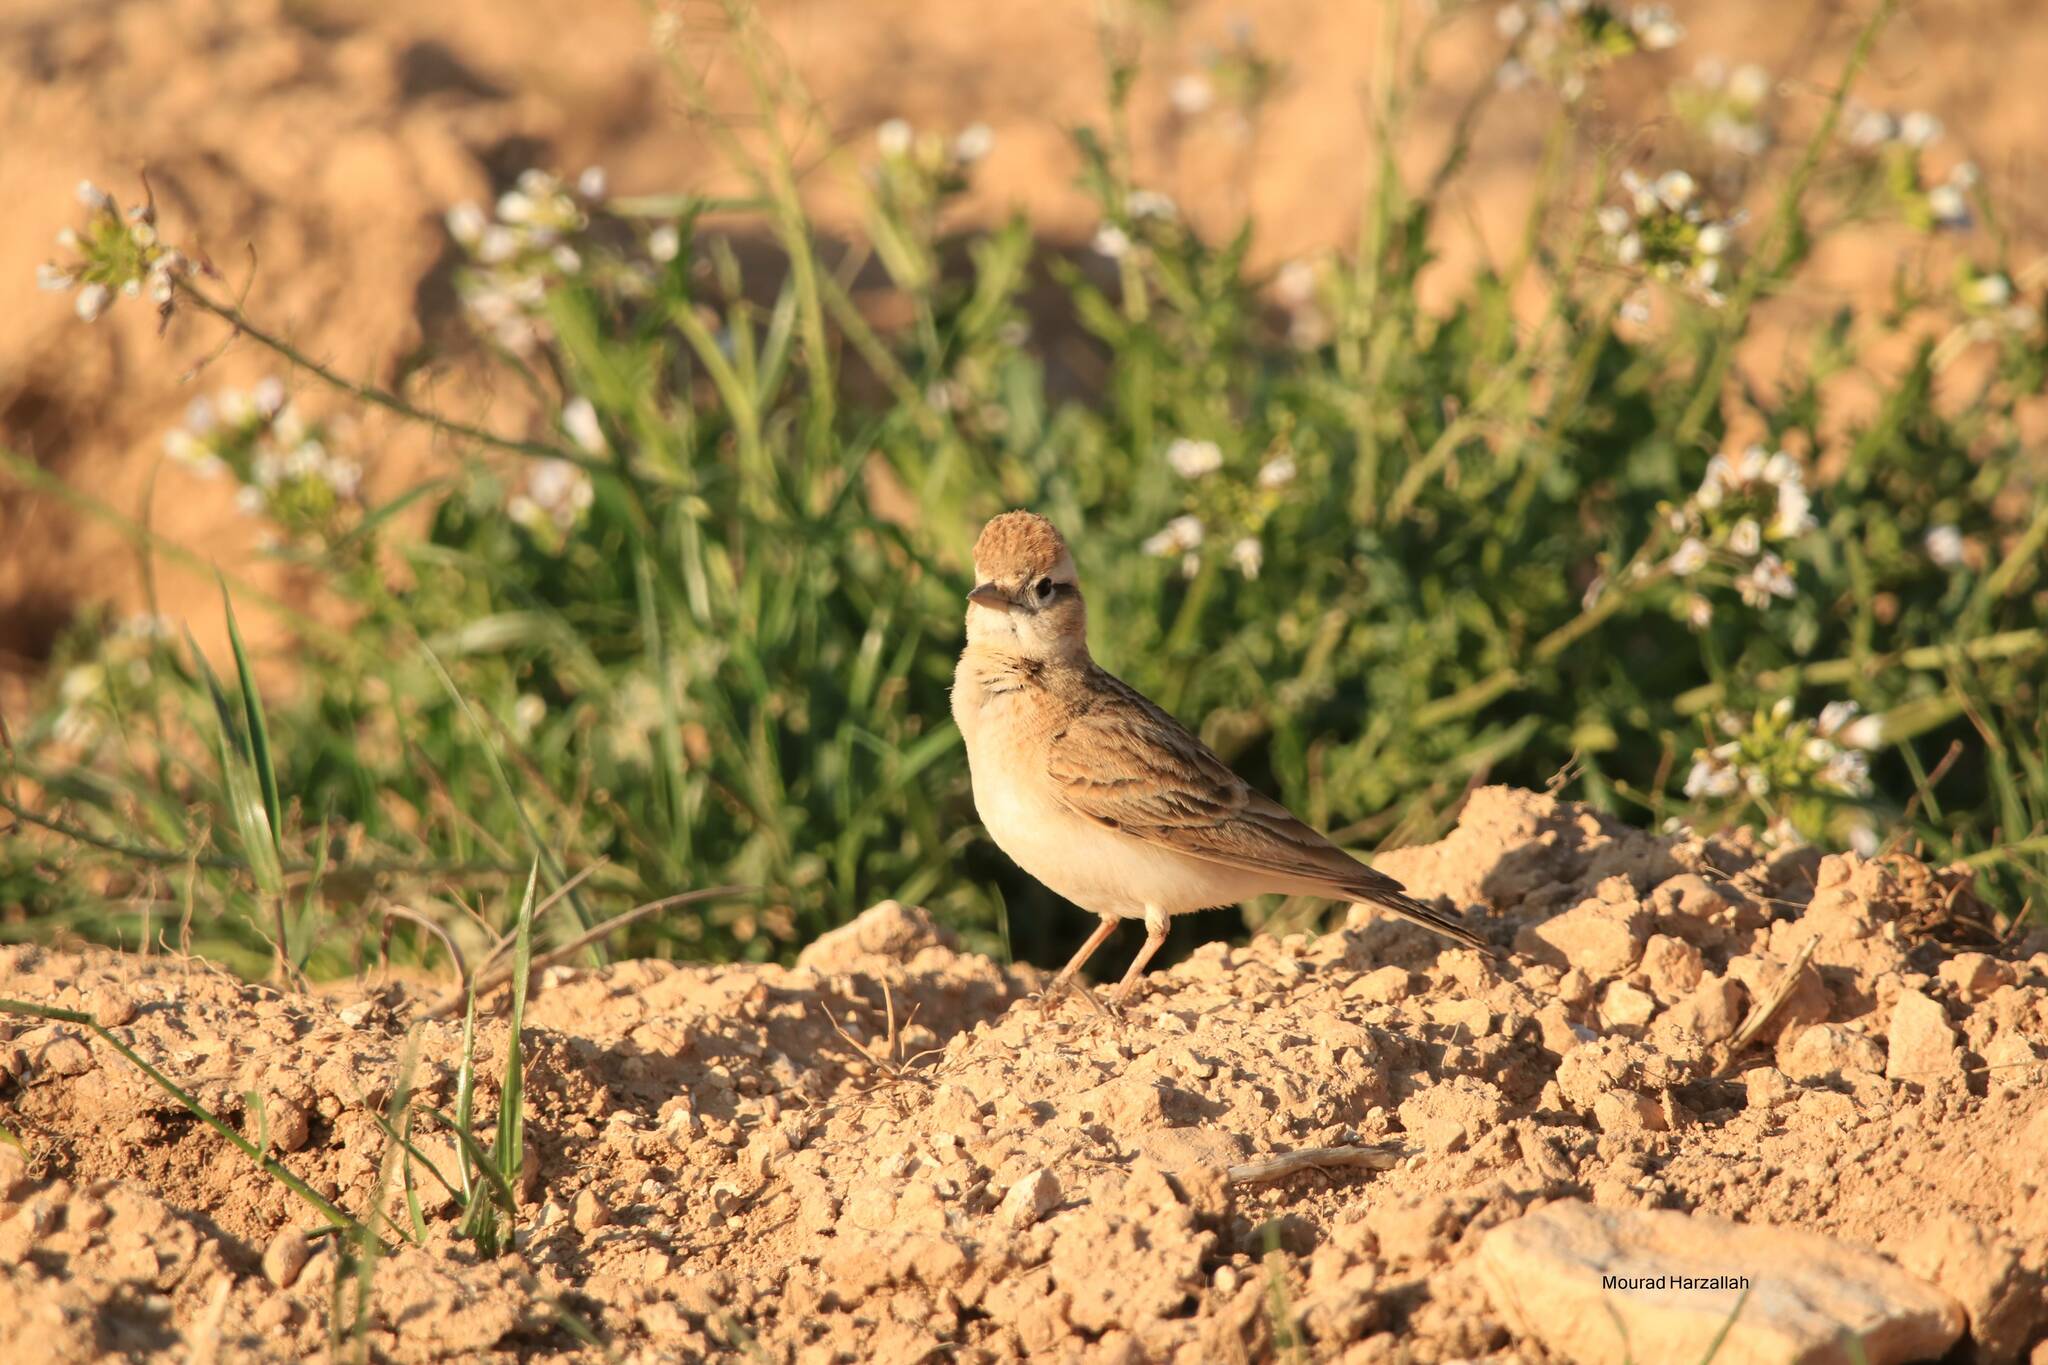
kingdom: Animalia
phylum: Chordata
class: Aves
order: Passeriformes
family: Alaudidae
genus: Calandrella
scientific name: Calandrella brachydactyla
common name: Greater short-toed lark
